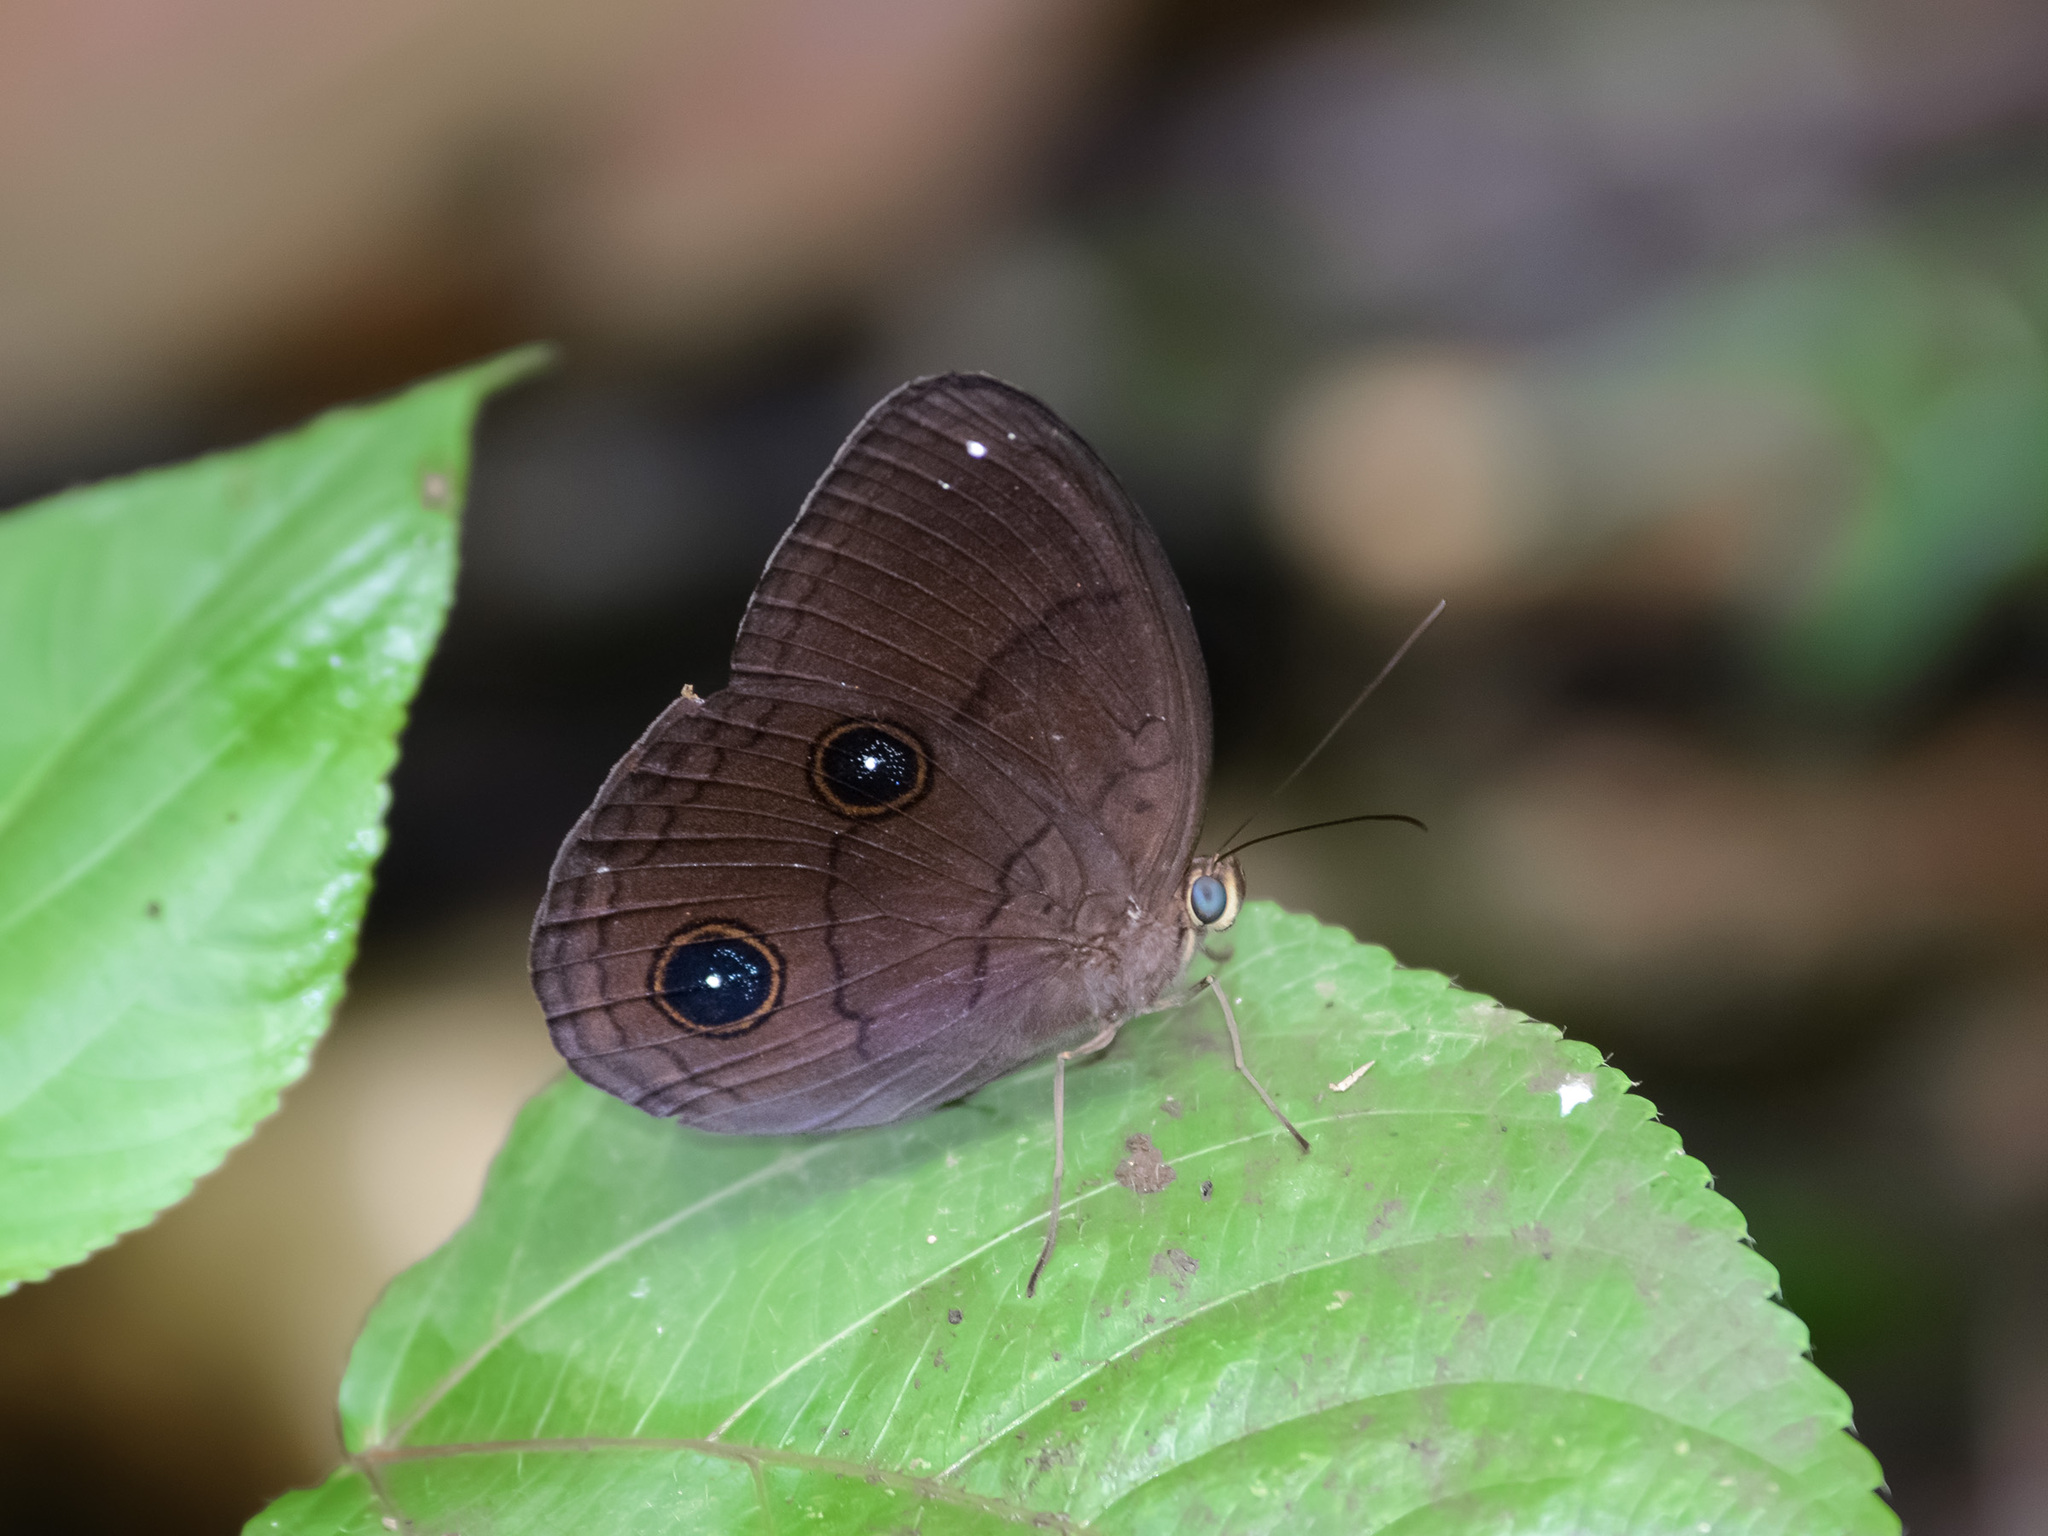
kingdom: Animalia
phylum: Arthropoda
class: Insecta
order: Lepidoptera
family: Nymphalidae
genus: Faunis
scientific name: Faunis phaon
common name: Faun butterfly
